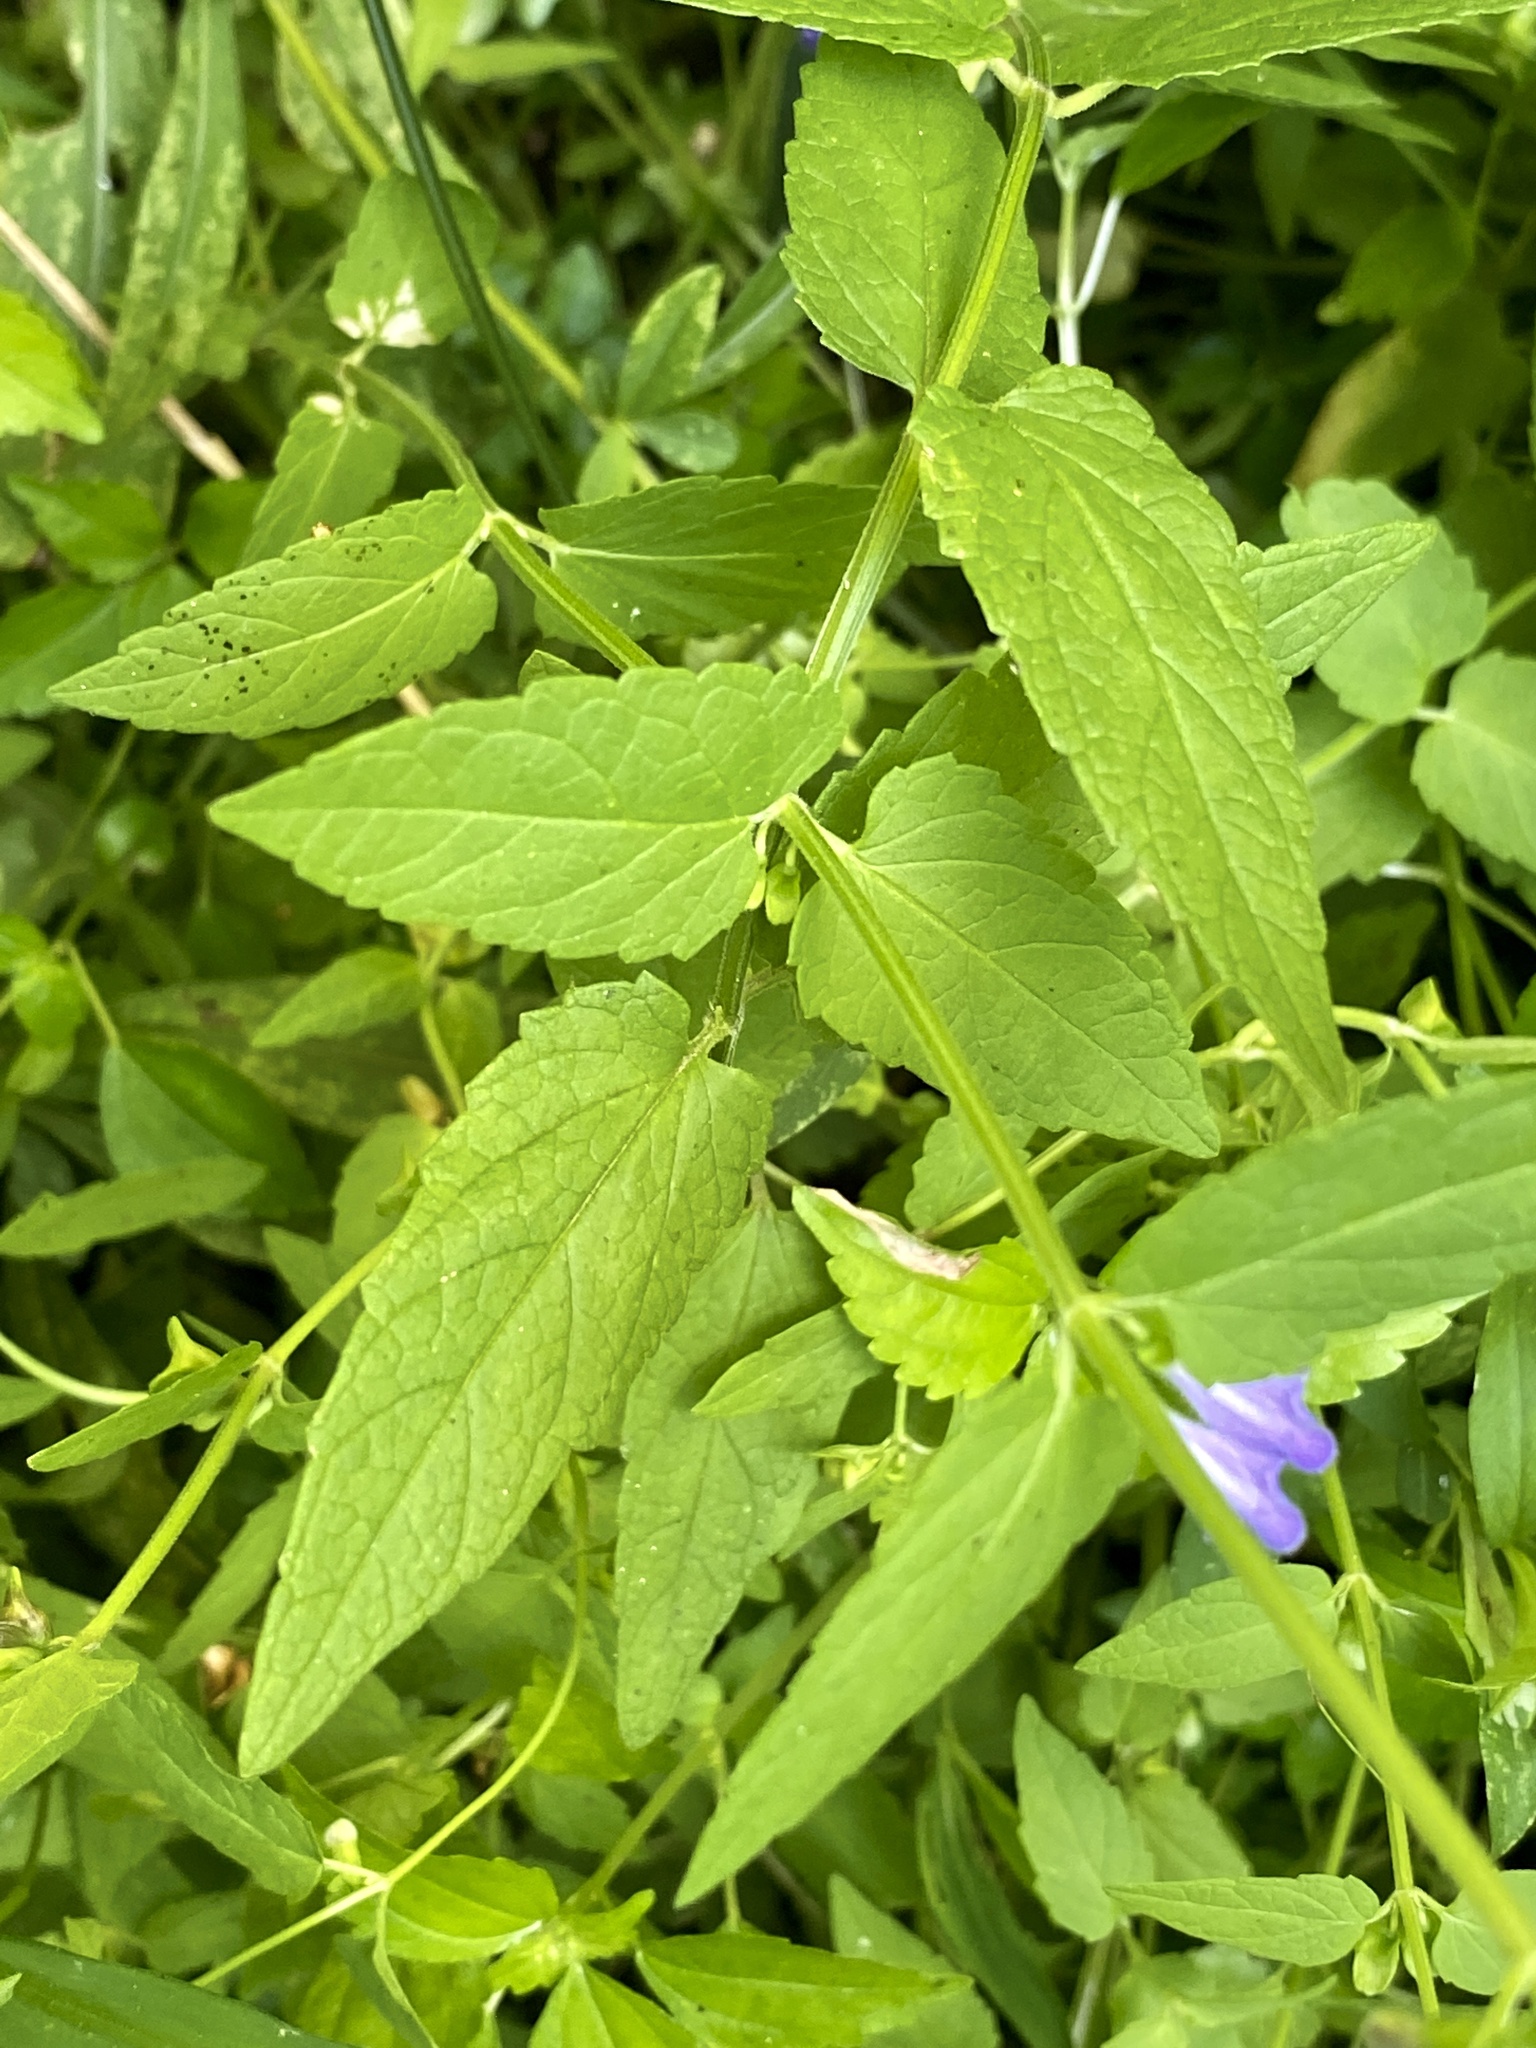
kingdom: Plantae
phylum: Tracheophyta
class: Magnoliopsida
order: Lamiales
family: Lamiaceae
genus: Scutellaria
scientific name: Scutellaria churchilliana
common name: Churchill's skullcap
